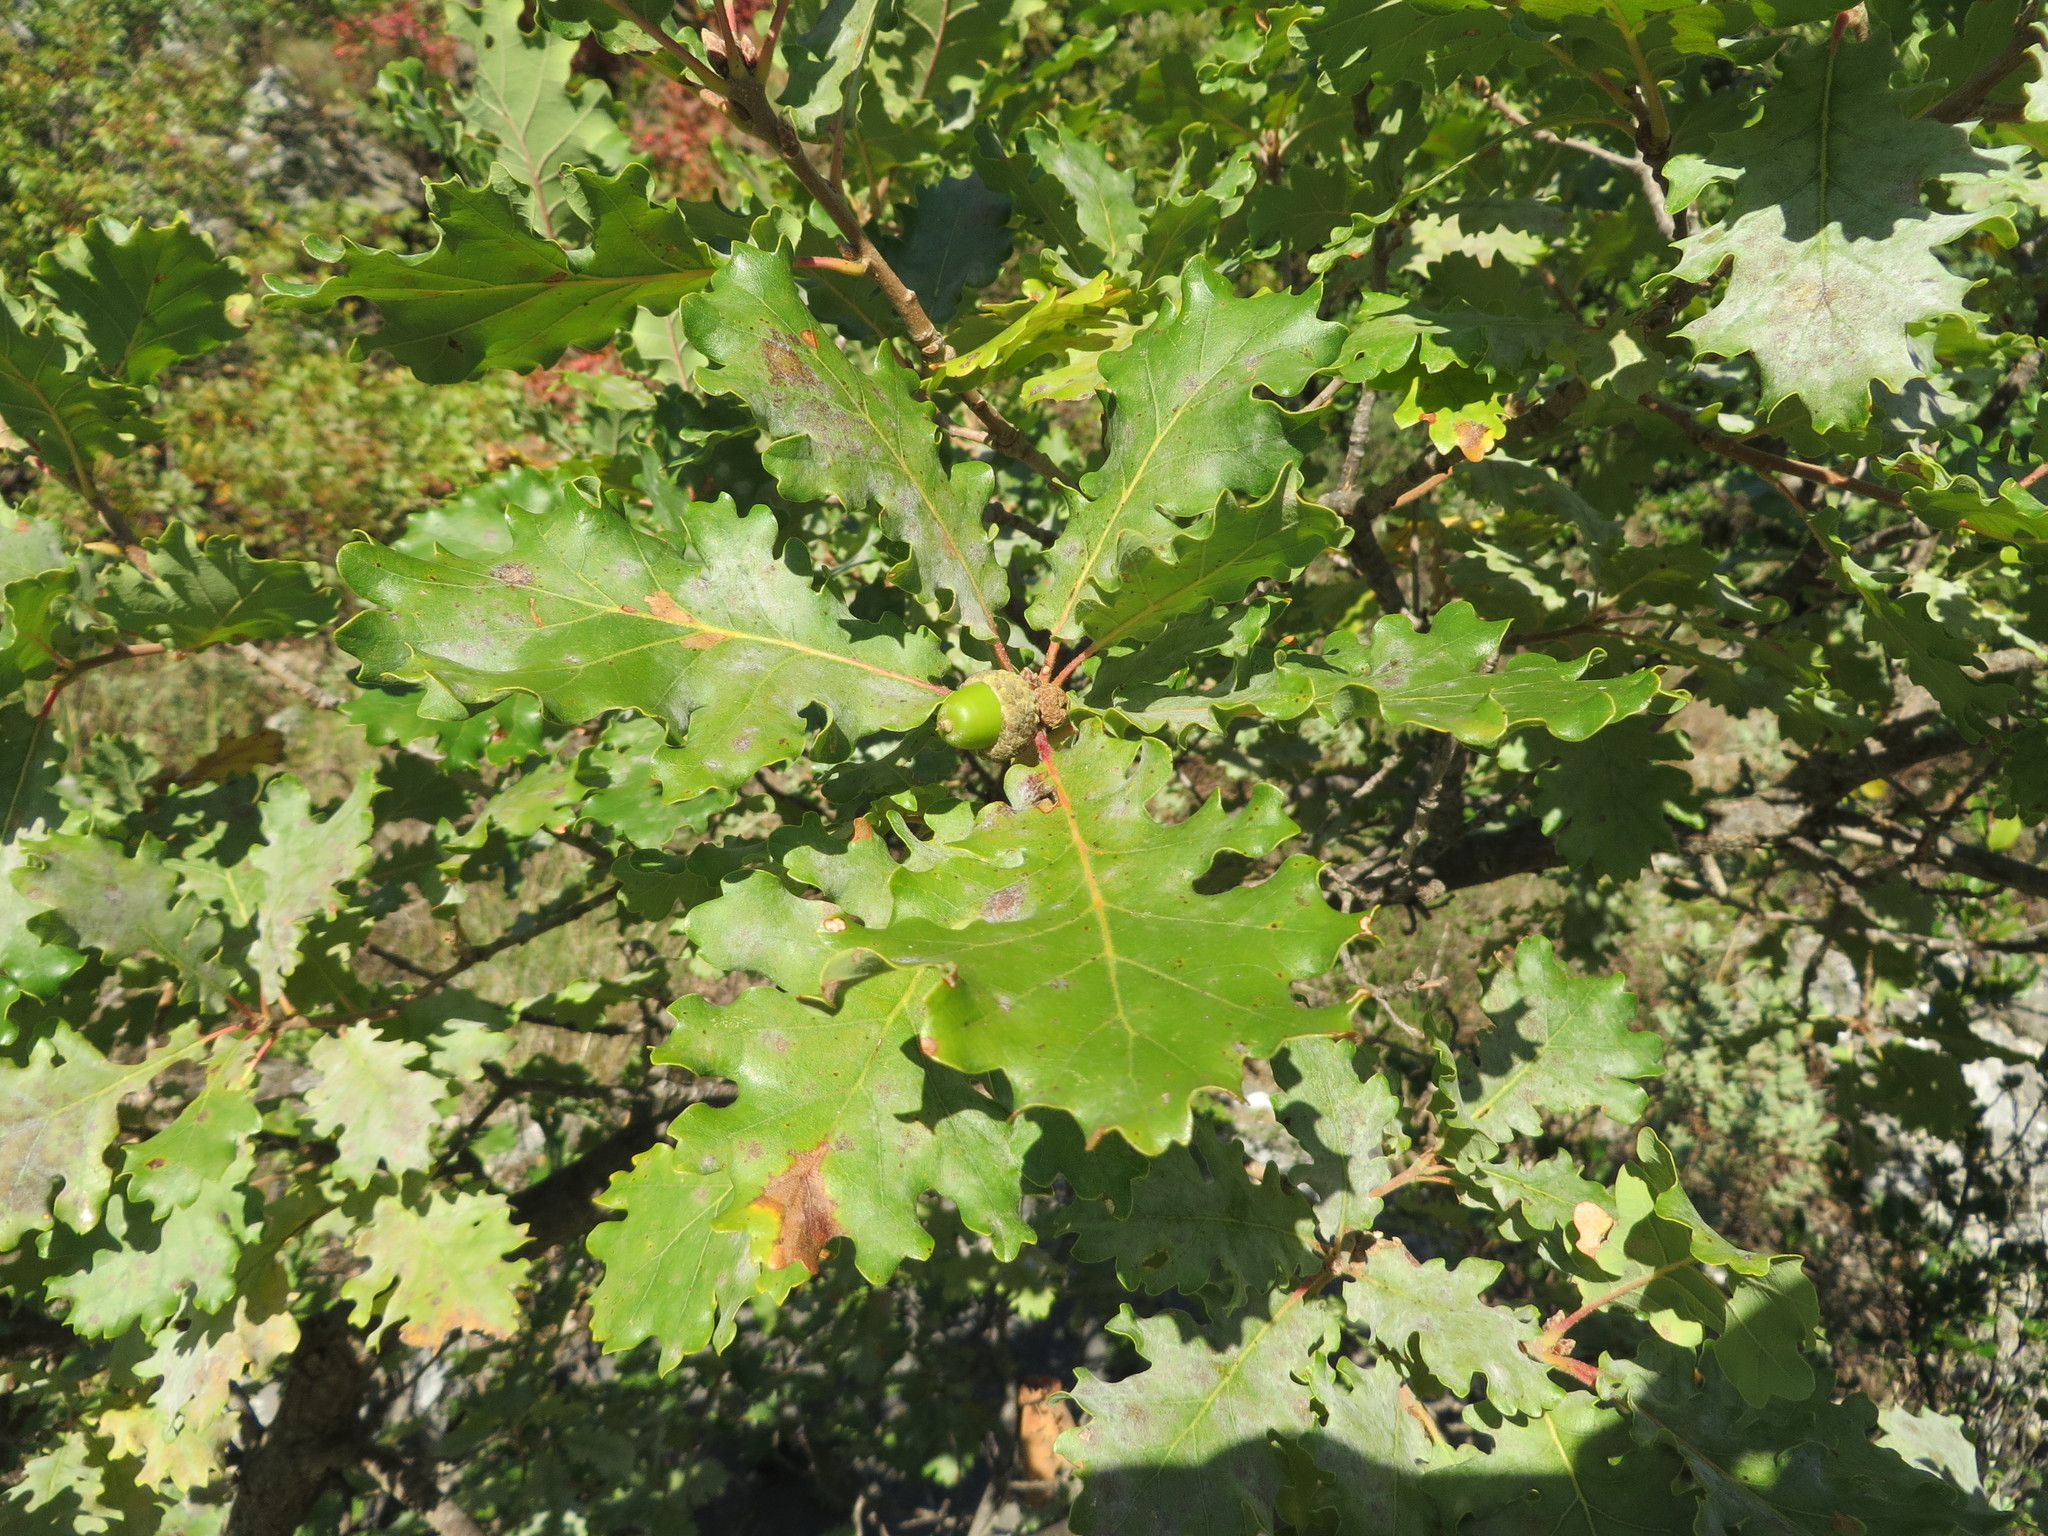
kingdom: Plantae
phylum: Tracheophyta
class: Magnoliopsida
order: Fagales
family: Fagaceae
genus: Quercus
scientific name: Quercus pubescens
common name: Downy oak
